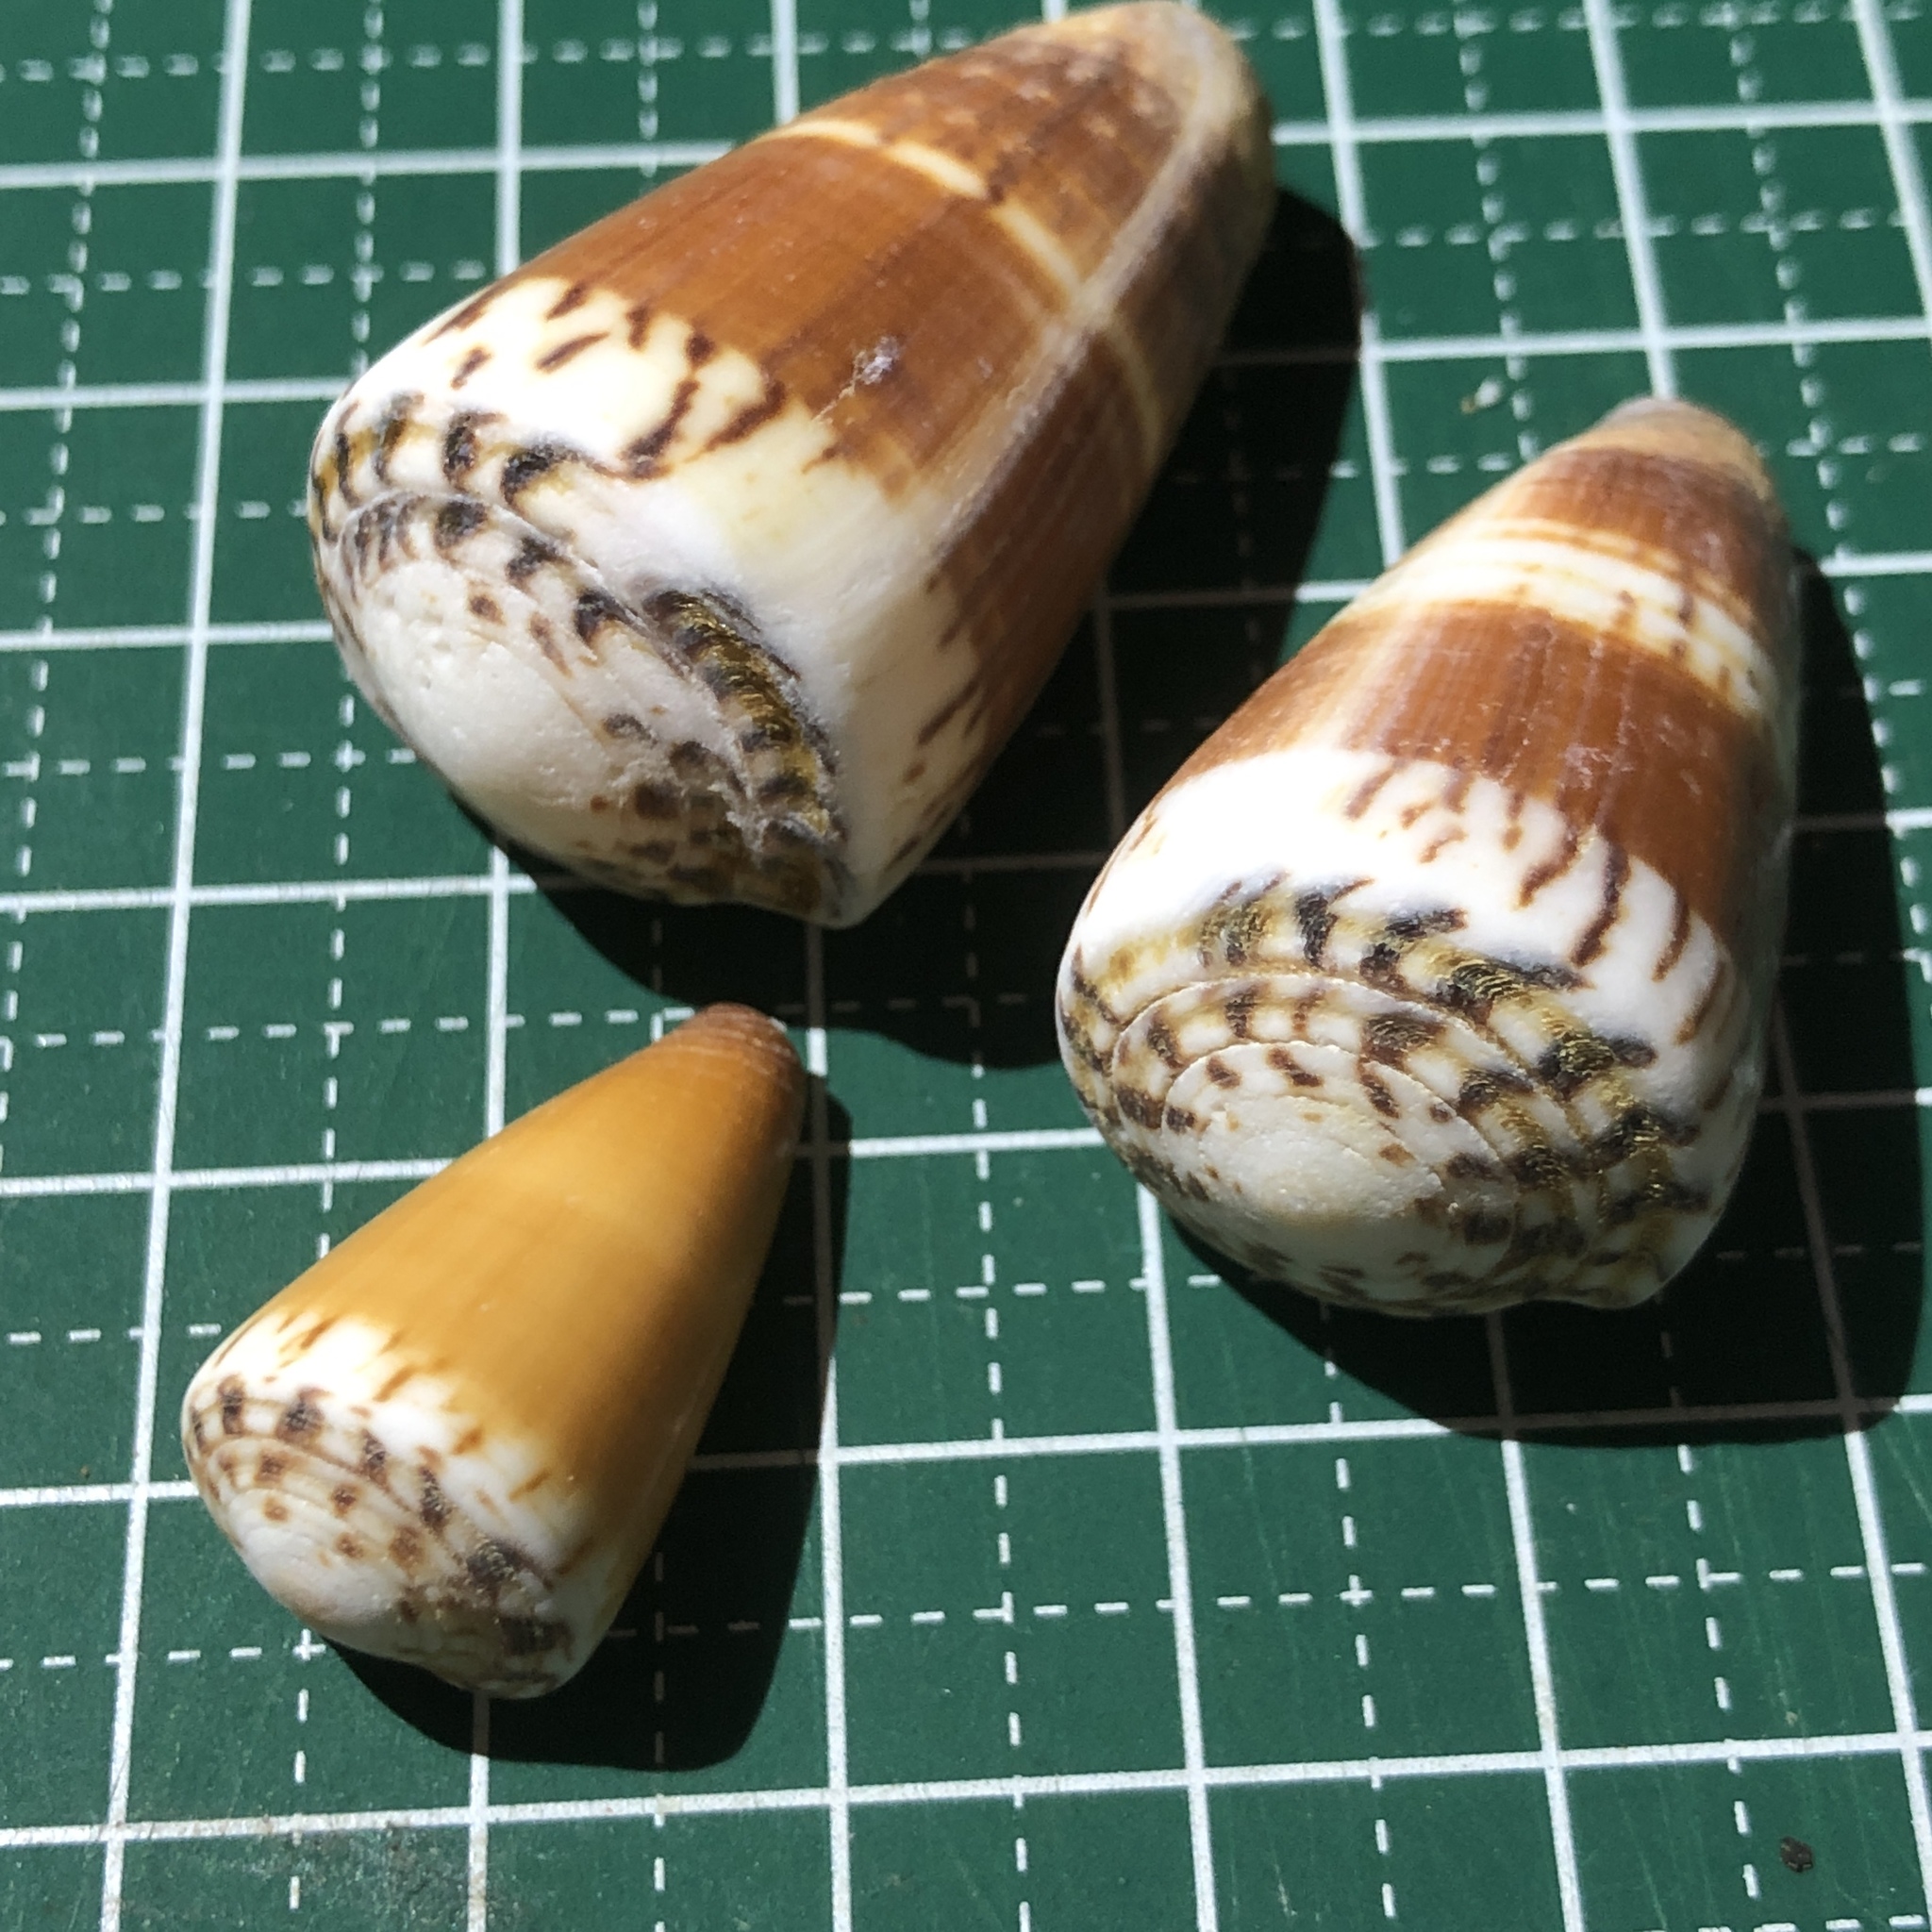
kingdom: Animalia
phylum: Mollusca
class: Gastropoda
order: Neogastropoda
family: Conidae
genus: Conus
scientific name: Conus planorbis
